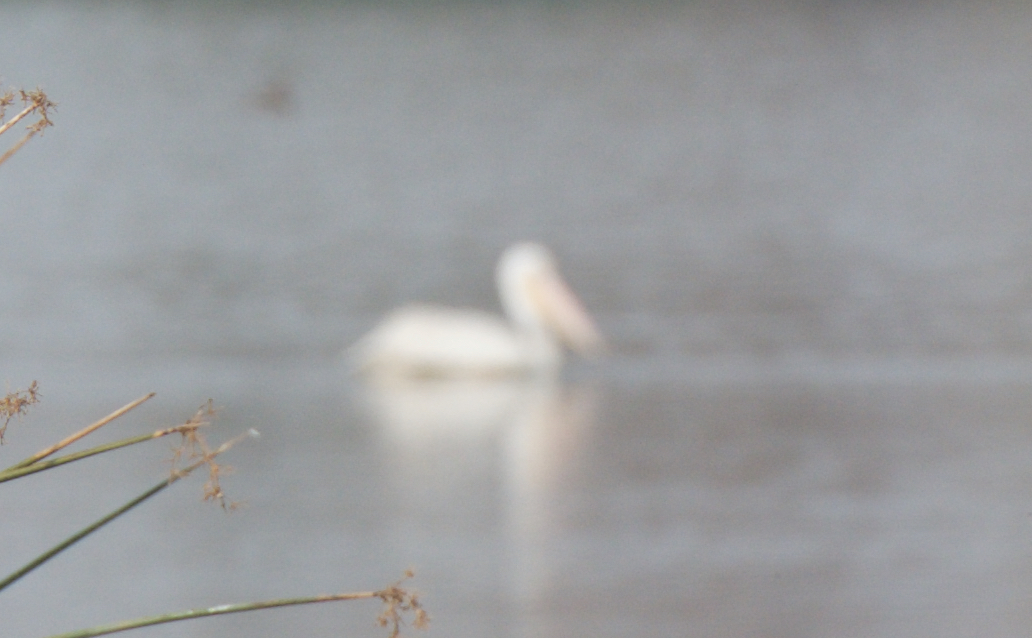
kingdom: Animalia
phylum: Chordata
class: Aves
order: Pelecaniformes
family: Pelecanidae
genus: Pelecanus
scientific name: Pelecanus erythrorhynchos
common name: American white pelican
